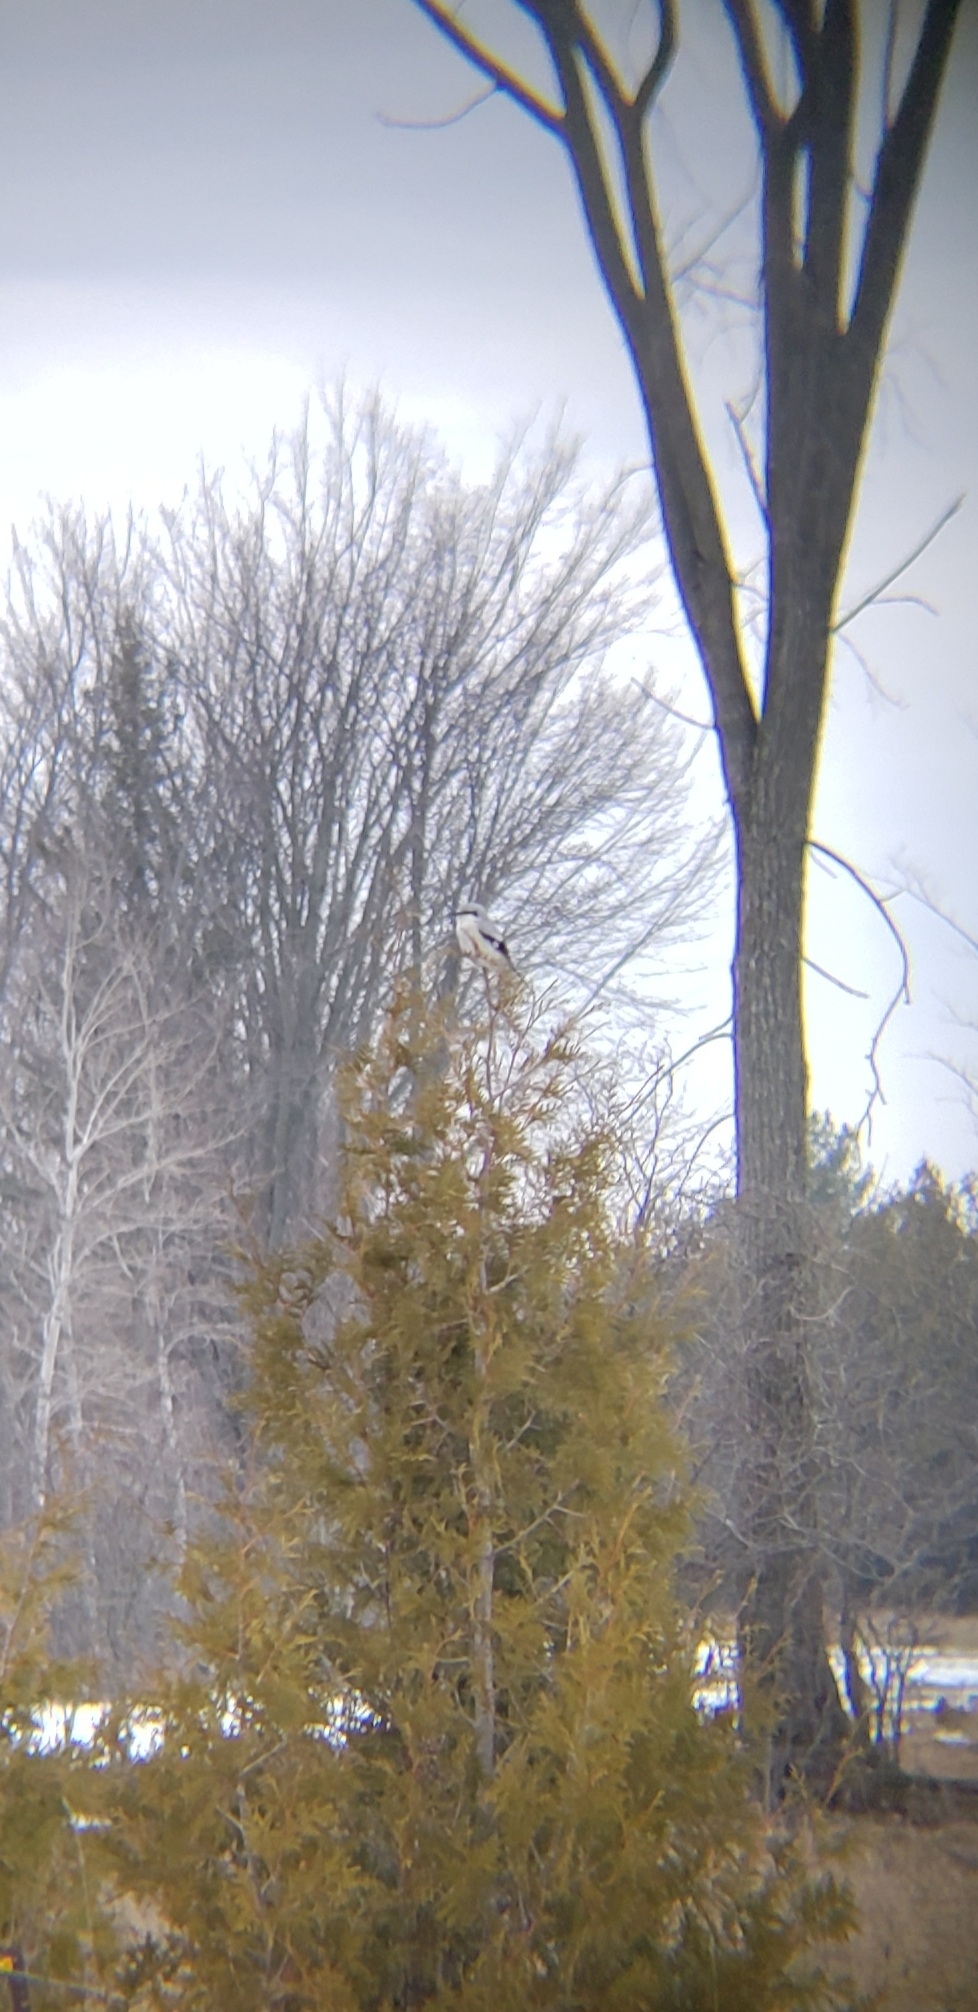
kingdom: Animalia
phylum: Chordata
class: Aves
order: Passeriformes
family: Laniidae
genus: Lanius
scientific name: Lanius borealis
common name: Northern shrike
